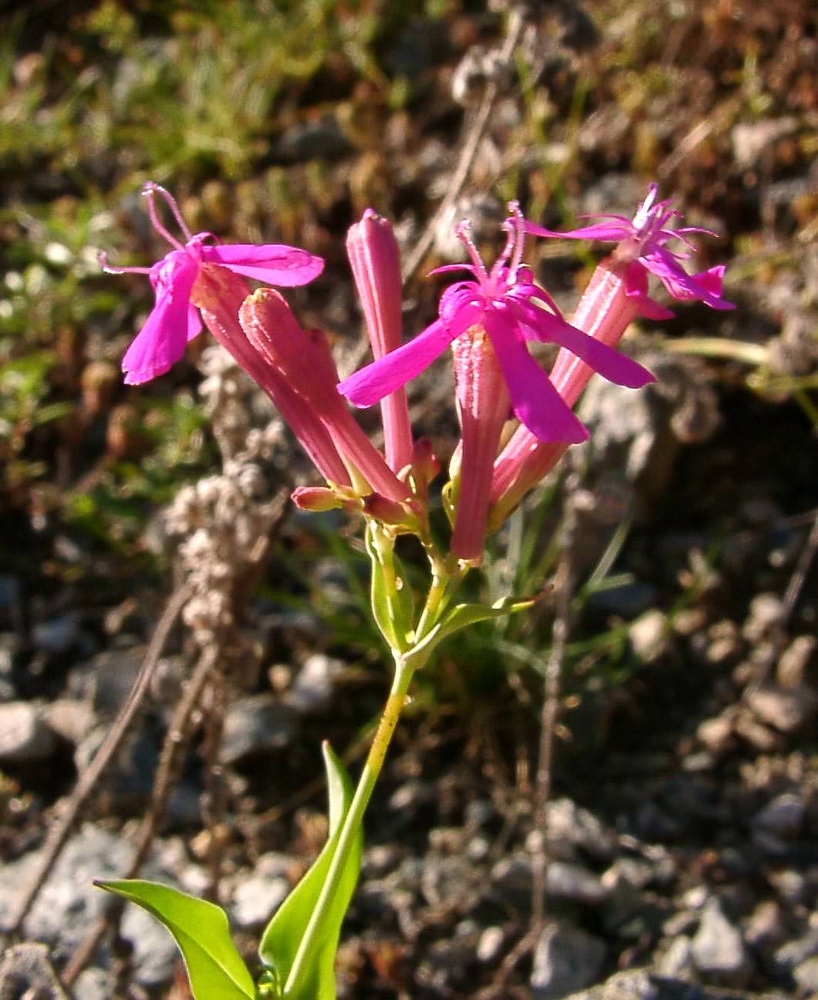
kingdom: Plantae
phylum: Tracheophyta
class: Magnoliopsida
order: Caryophyllales
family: Caryophyllaceae
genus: Atocion
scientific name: Atocion armeria
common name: Sweet william catchfly
